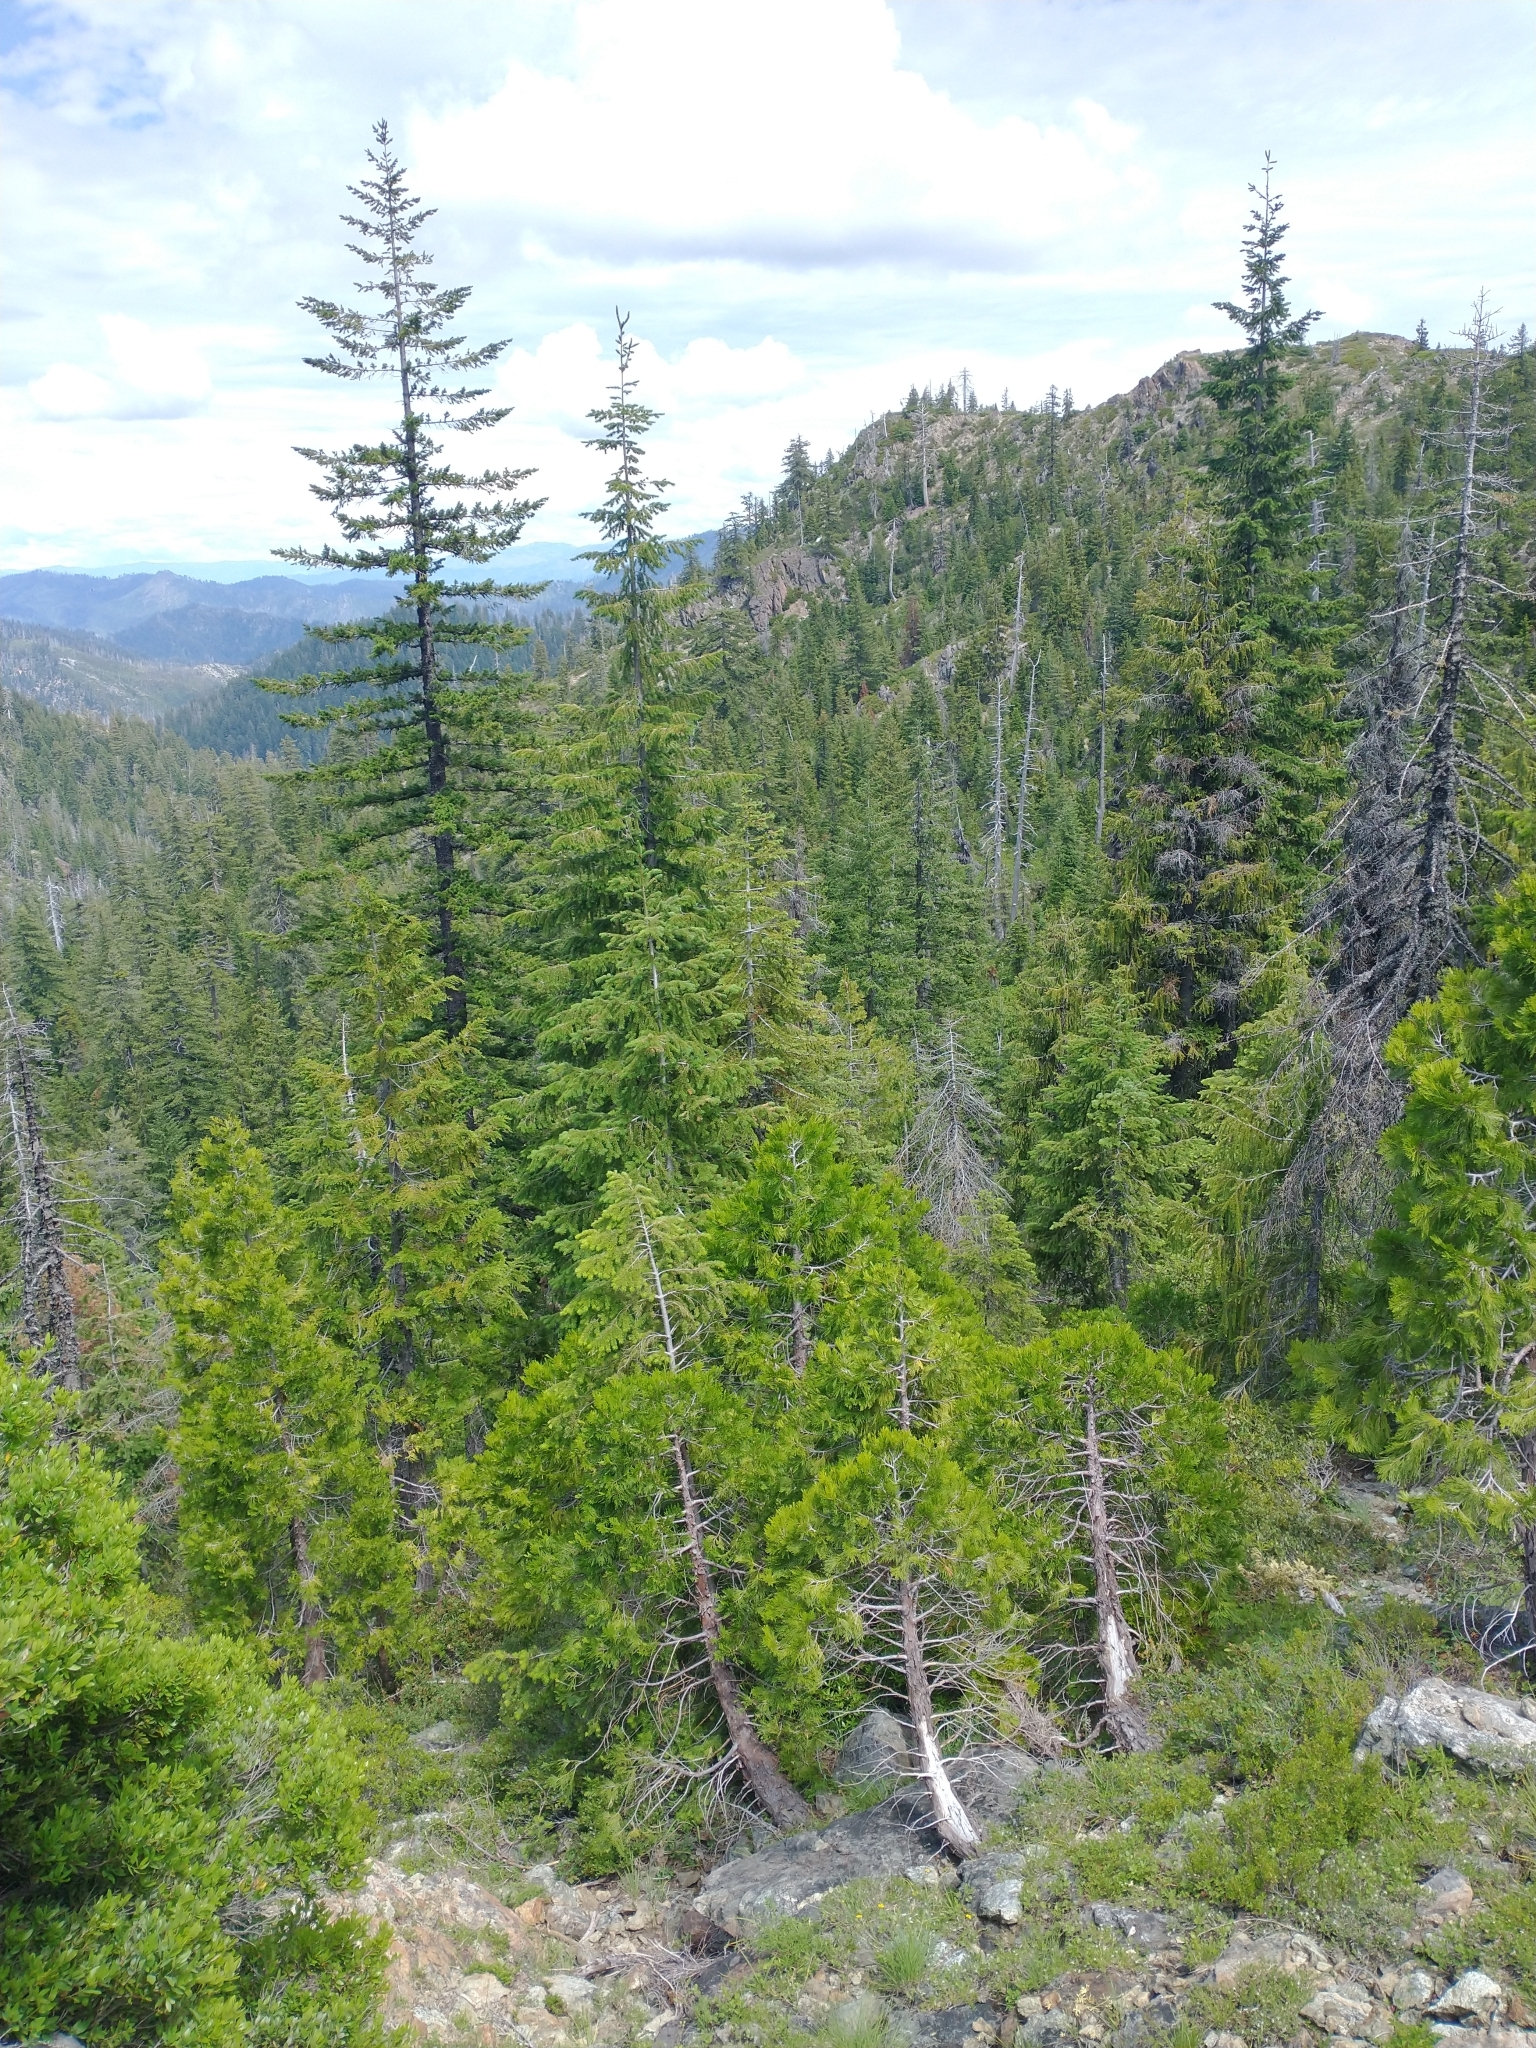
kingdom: Plantae
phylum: Tracheophyta
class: Pinopsida
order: Pinales
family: Pinaceae
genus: Pseudotsuga
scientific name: Pseudotsuga menziesii
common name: Douglas fir
